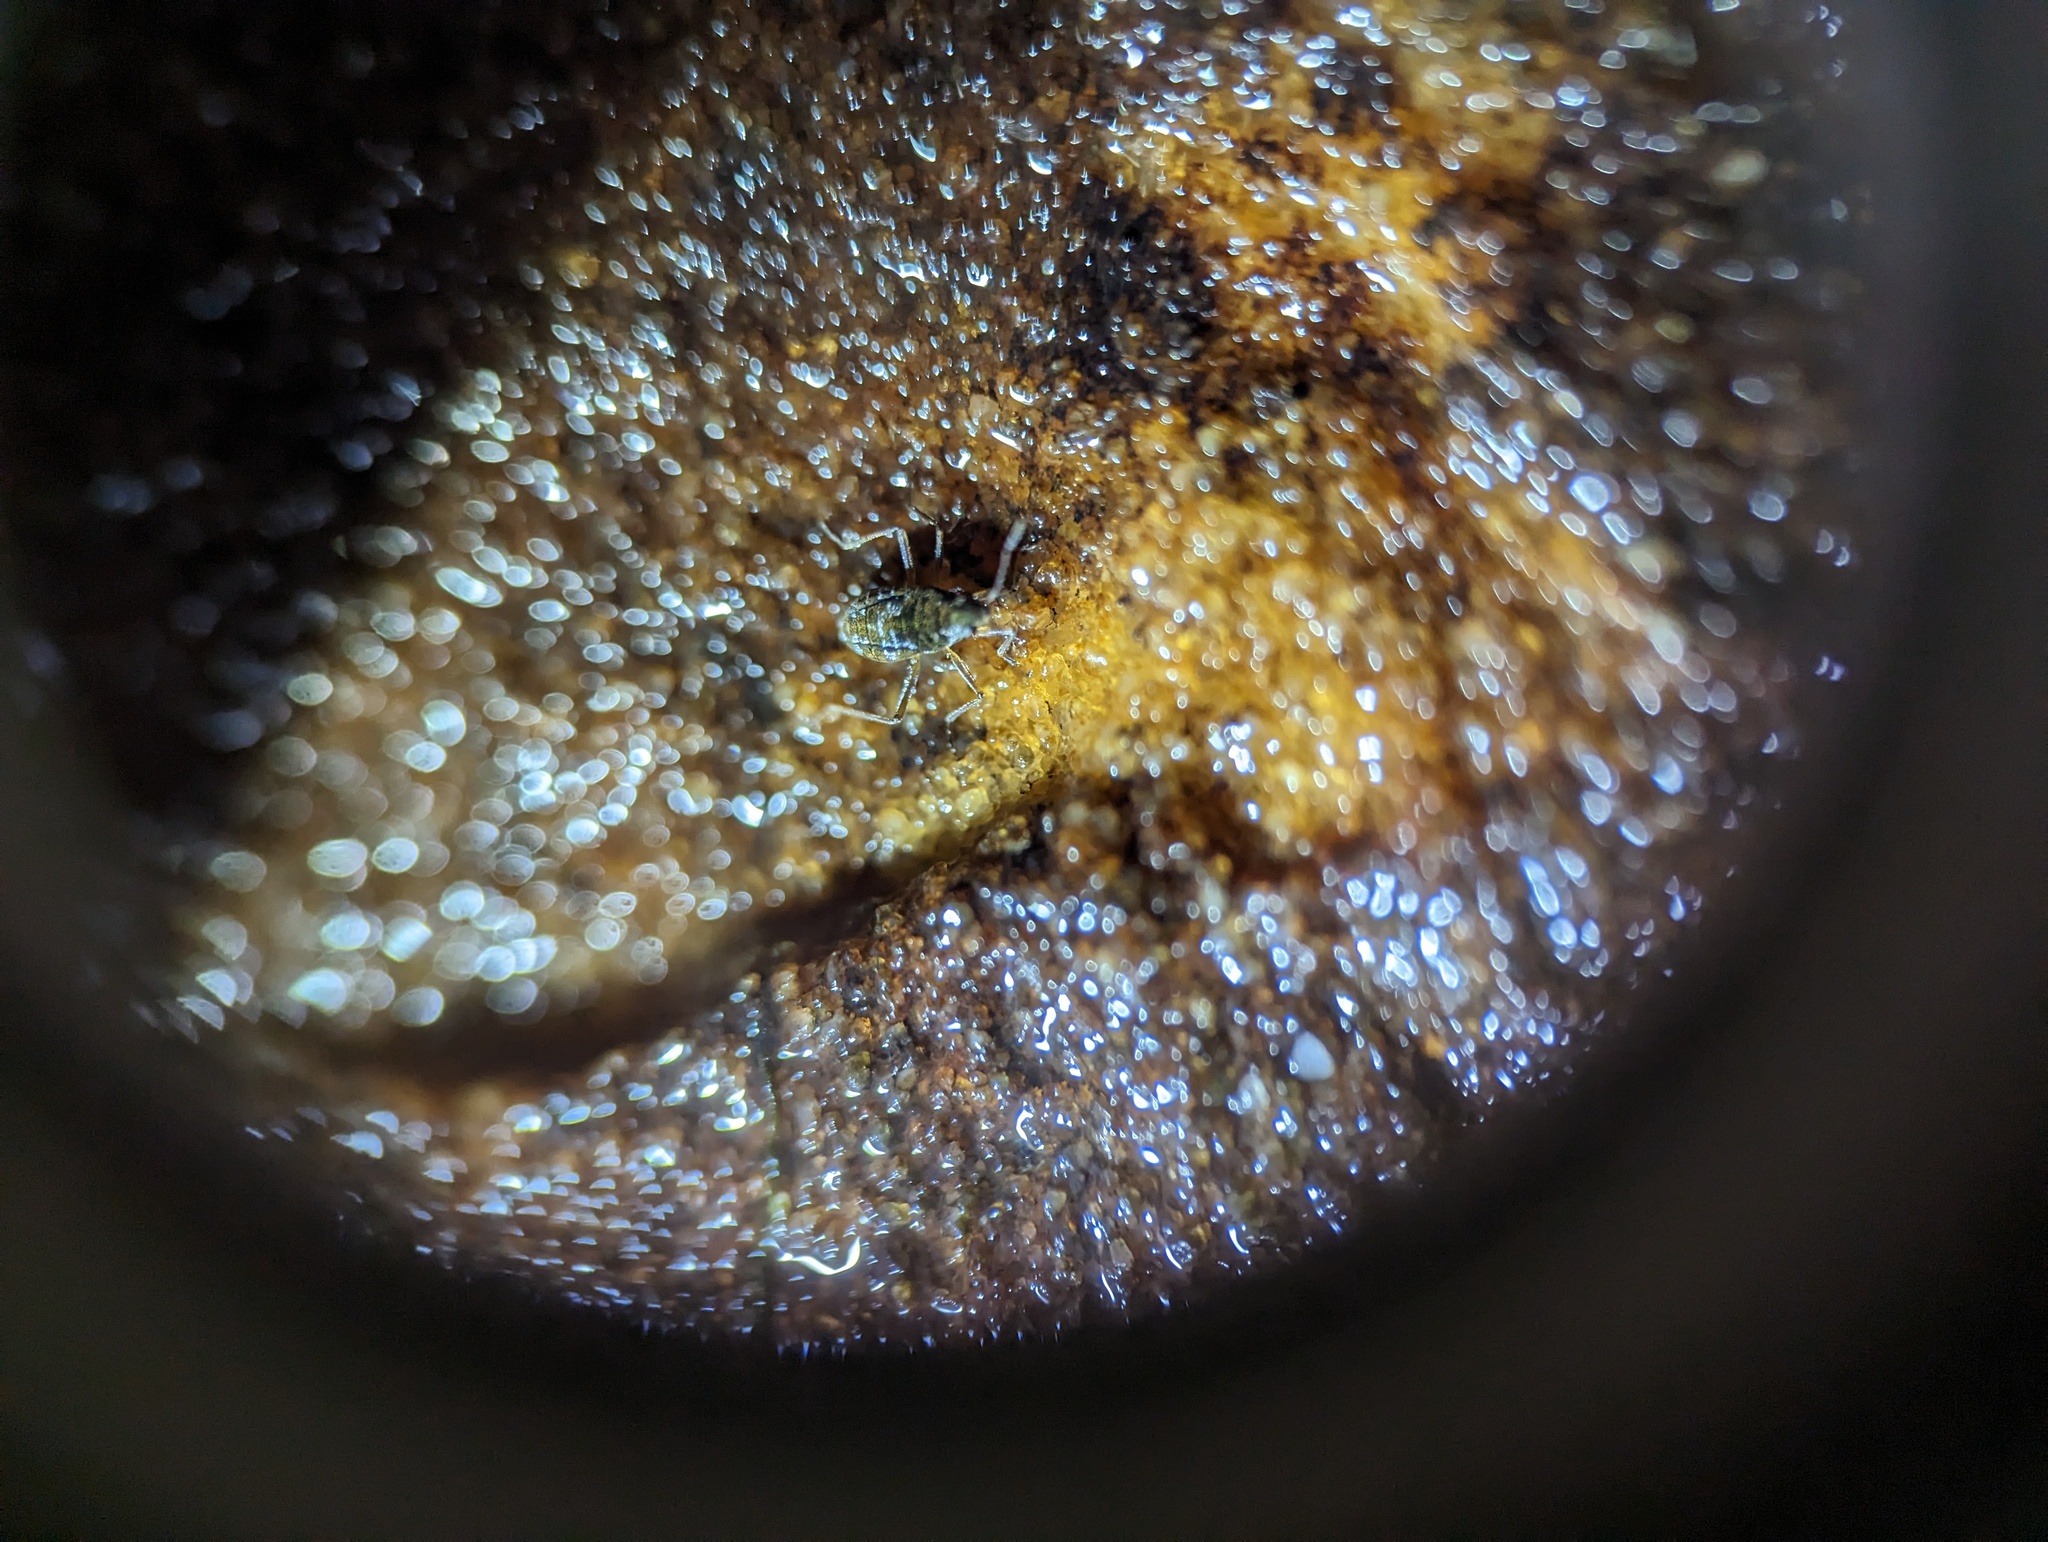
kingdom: Animalia
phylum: Arthropoda
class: Insecta
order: Hemiptera
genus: Kirkaldya
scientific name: Kirkaldya
